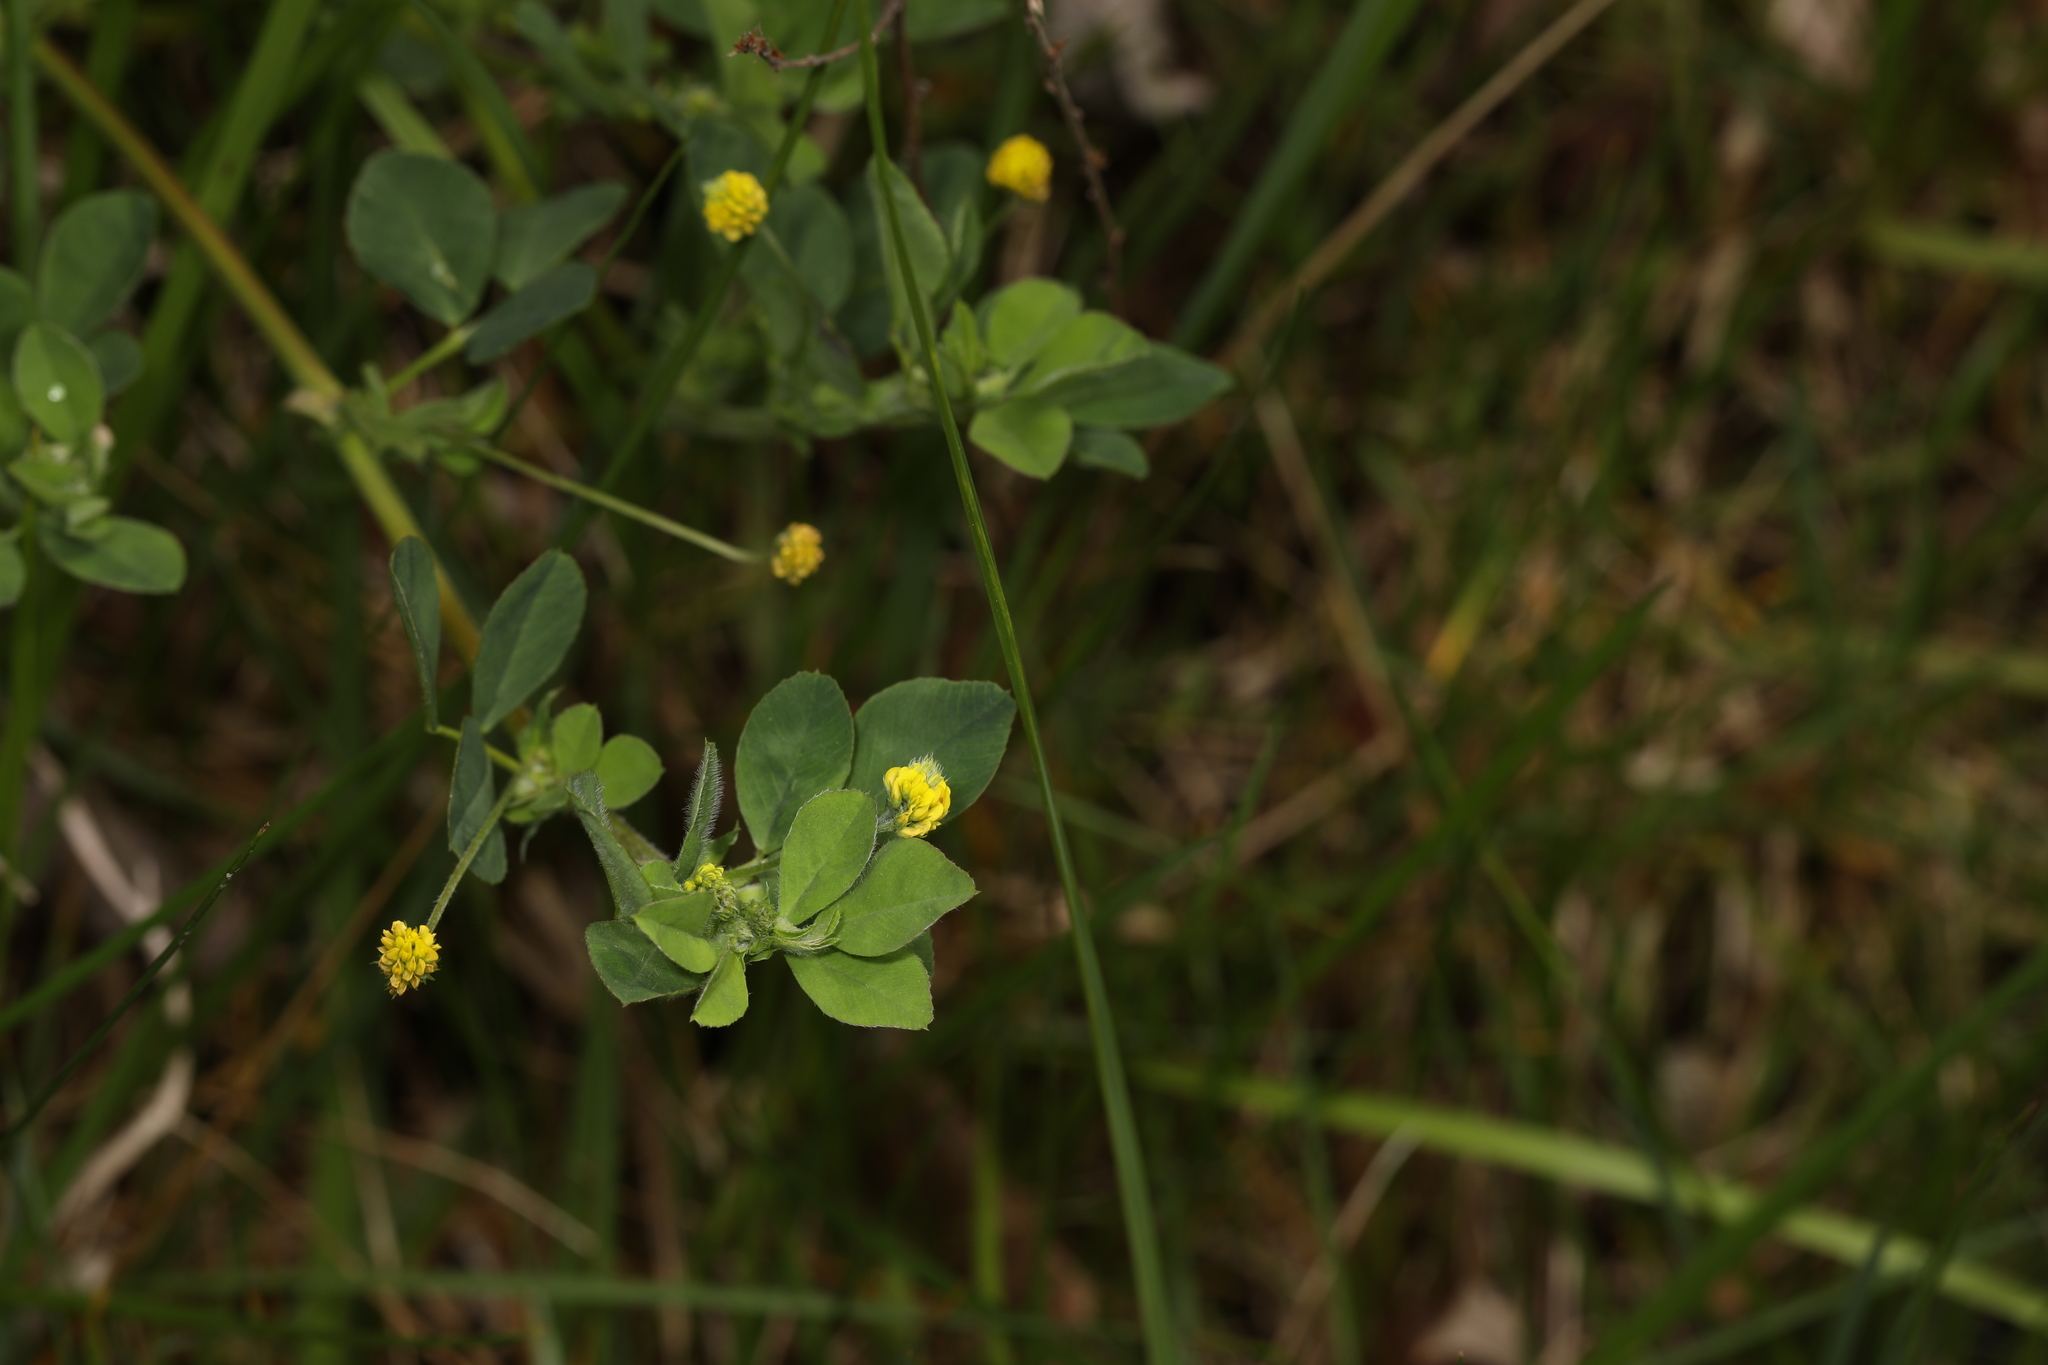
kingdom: Plantae
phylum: Tracheophyta
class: Magnoliopsida
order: Fabales
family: Fabaceae
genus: Medicago
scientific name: Medicago lupulina
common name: Black medick
